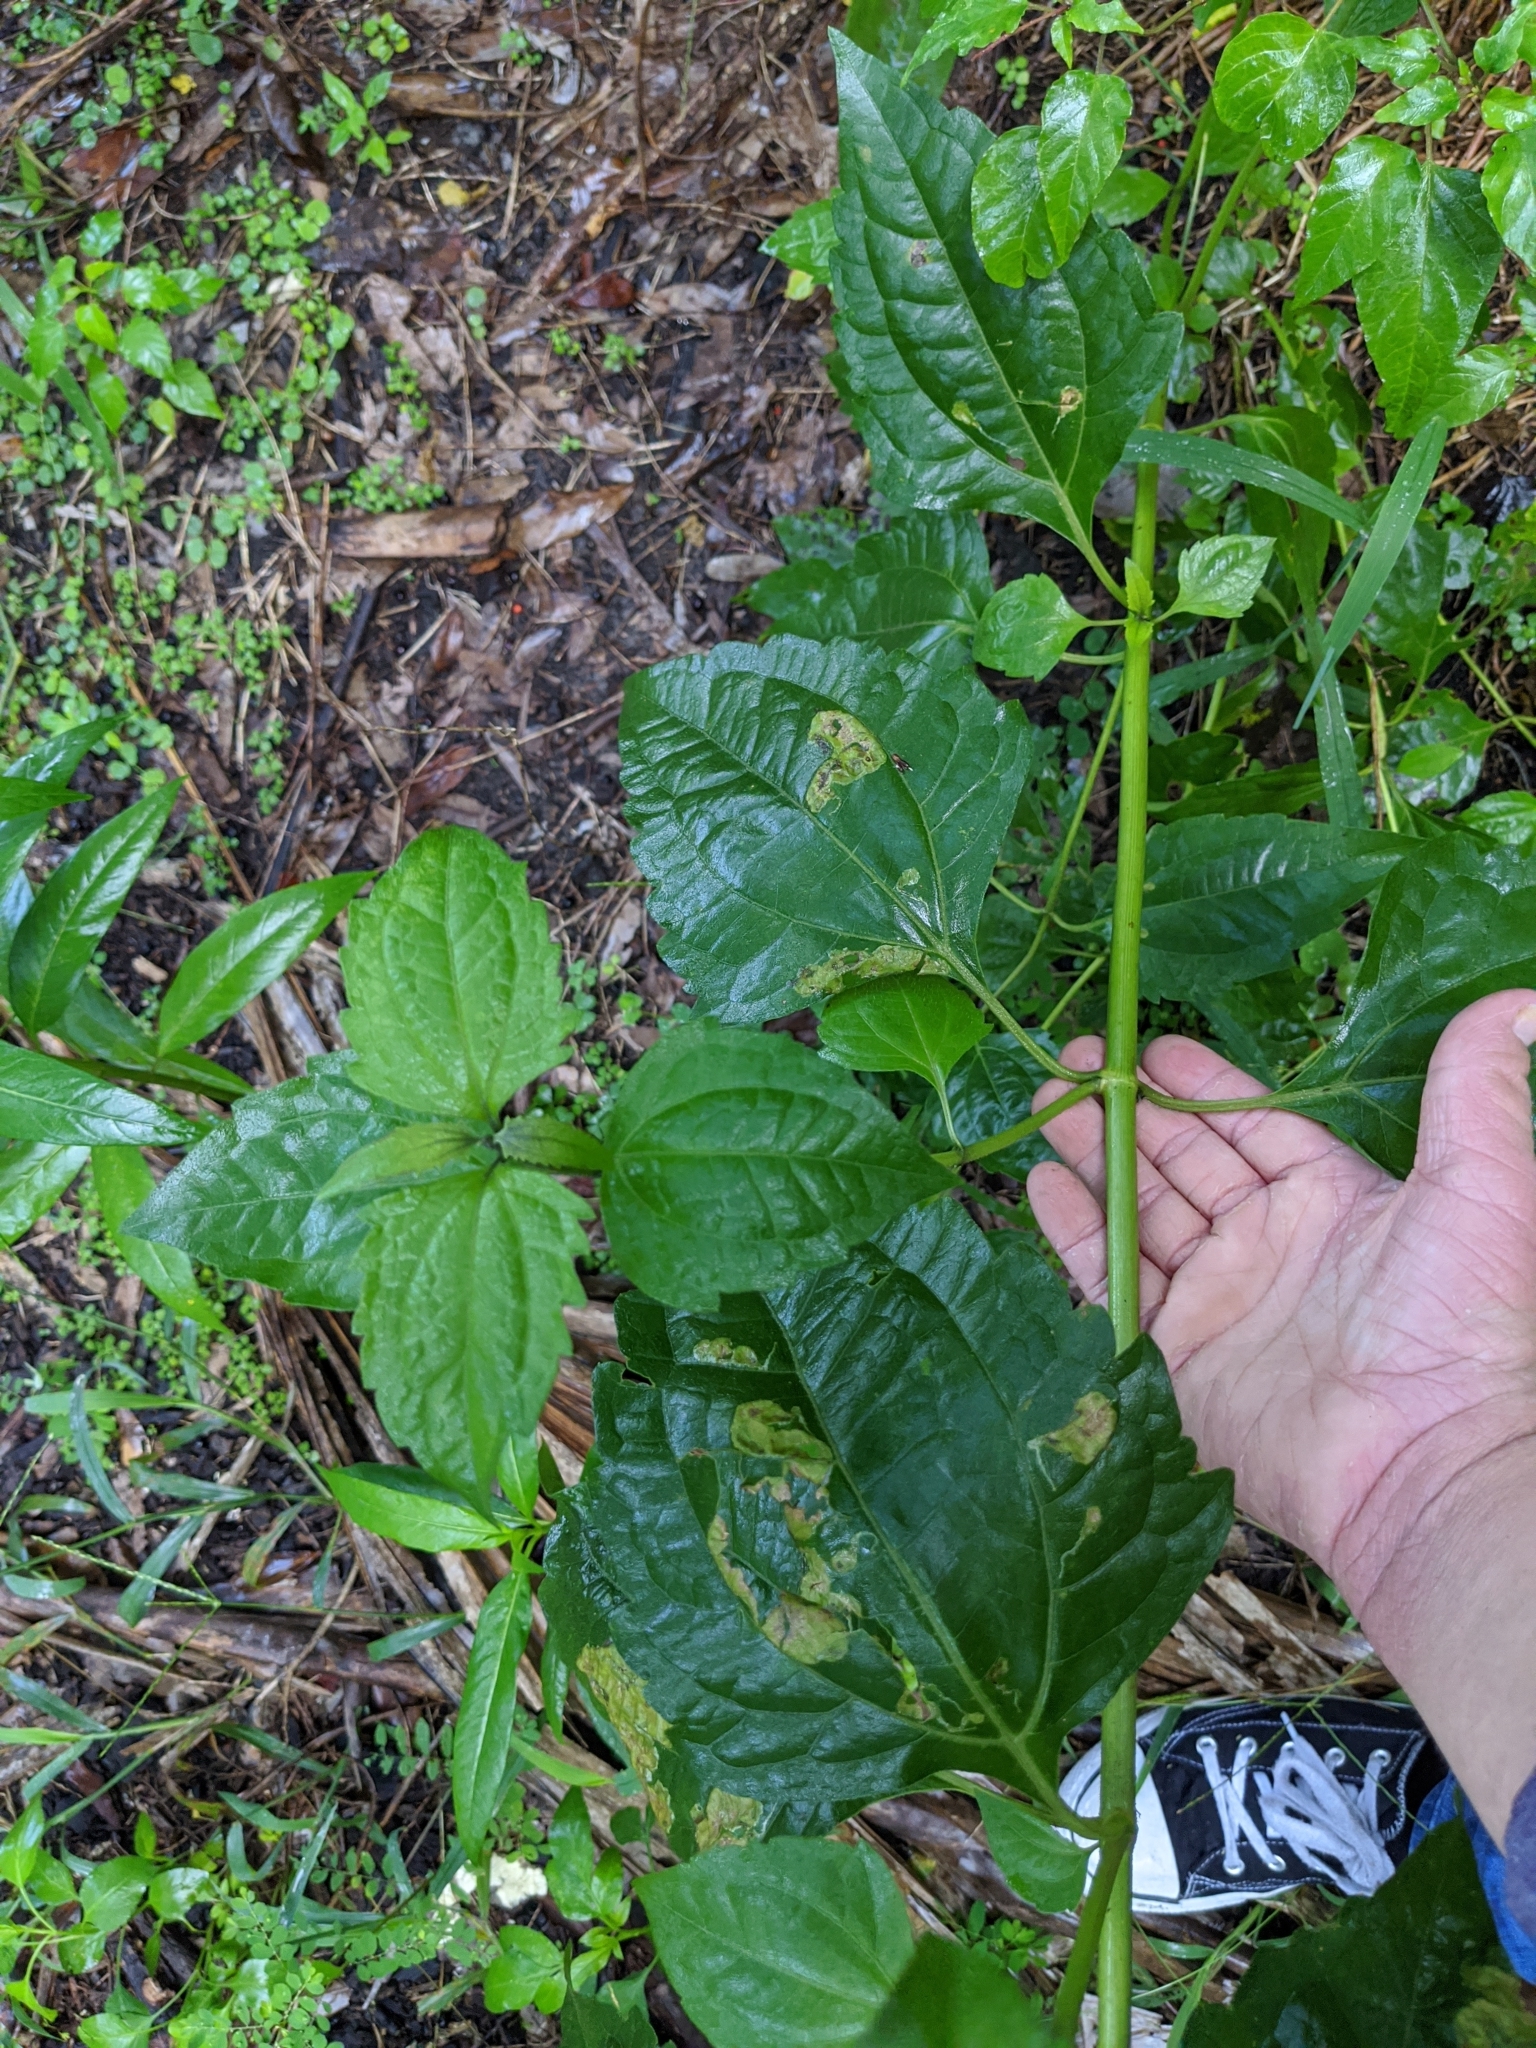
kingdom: Plantae
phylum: Tracheophyta
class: Magnoliopsida
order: Asterales
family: Asteraceae
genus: Chromolaena
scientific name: Chromolaena odorata
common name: Siamweed
